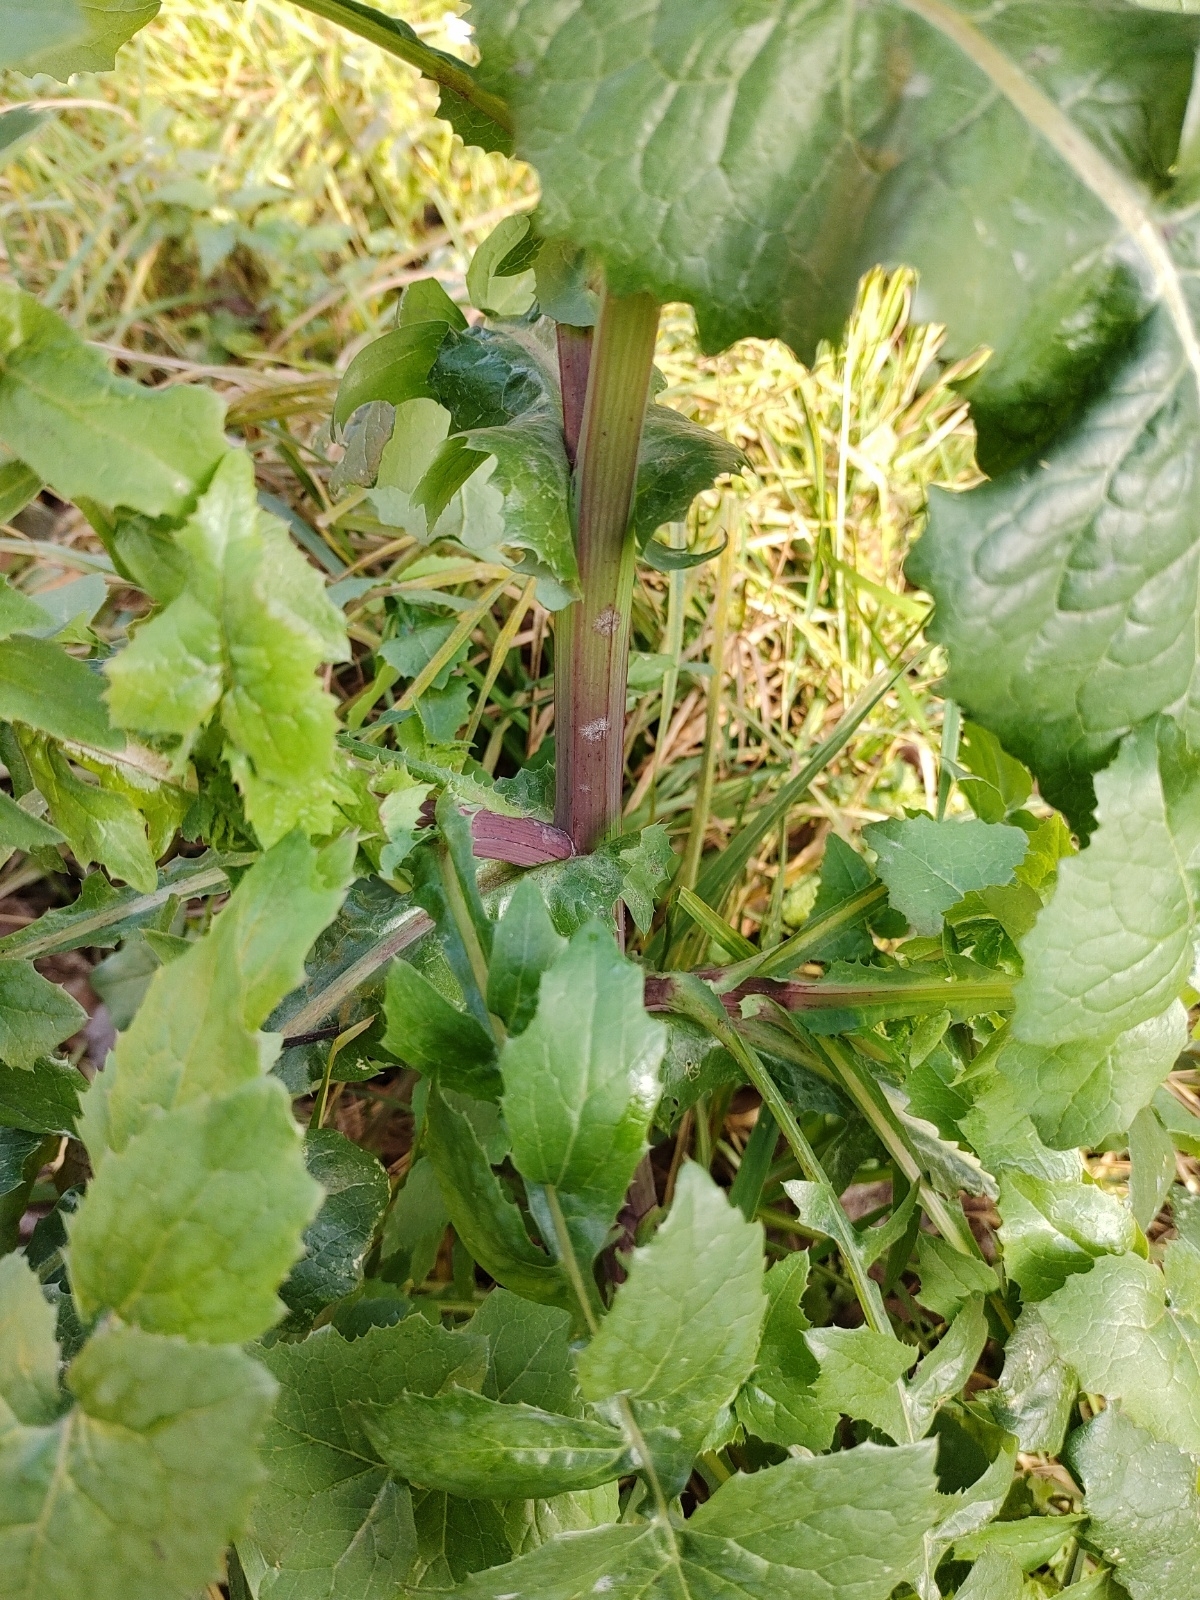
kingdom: Plantae
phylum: Tracheophyta
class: Magnoliopsida
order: Asterales
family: Asteraceae
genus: Sonchus
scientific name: Sonchus oleraceus
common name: Common sowthistle
